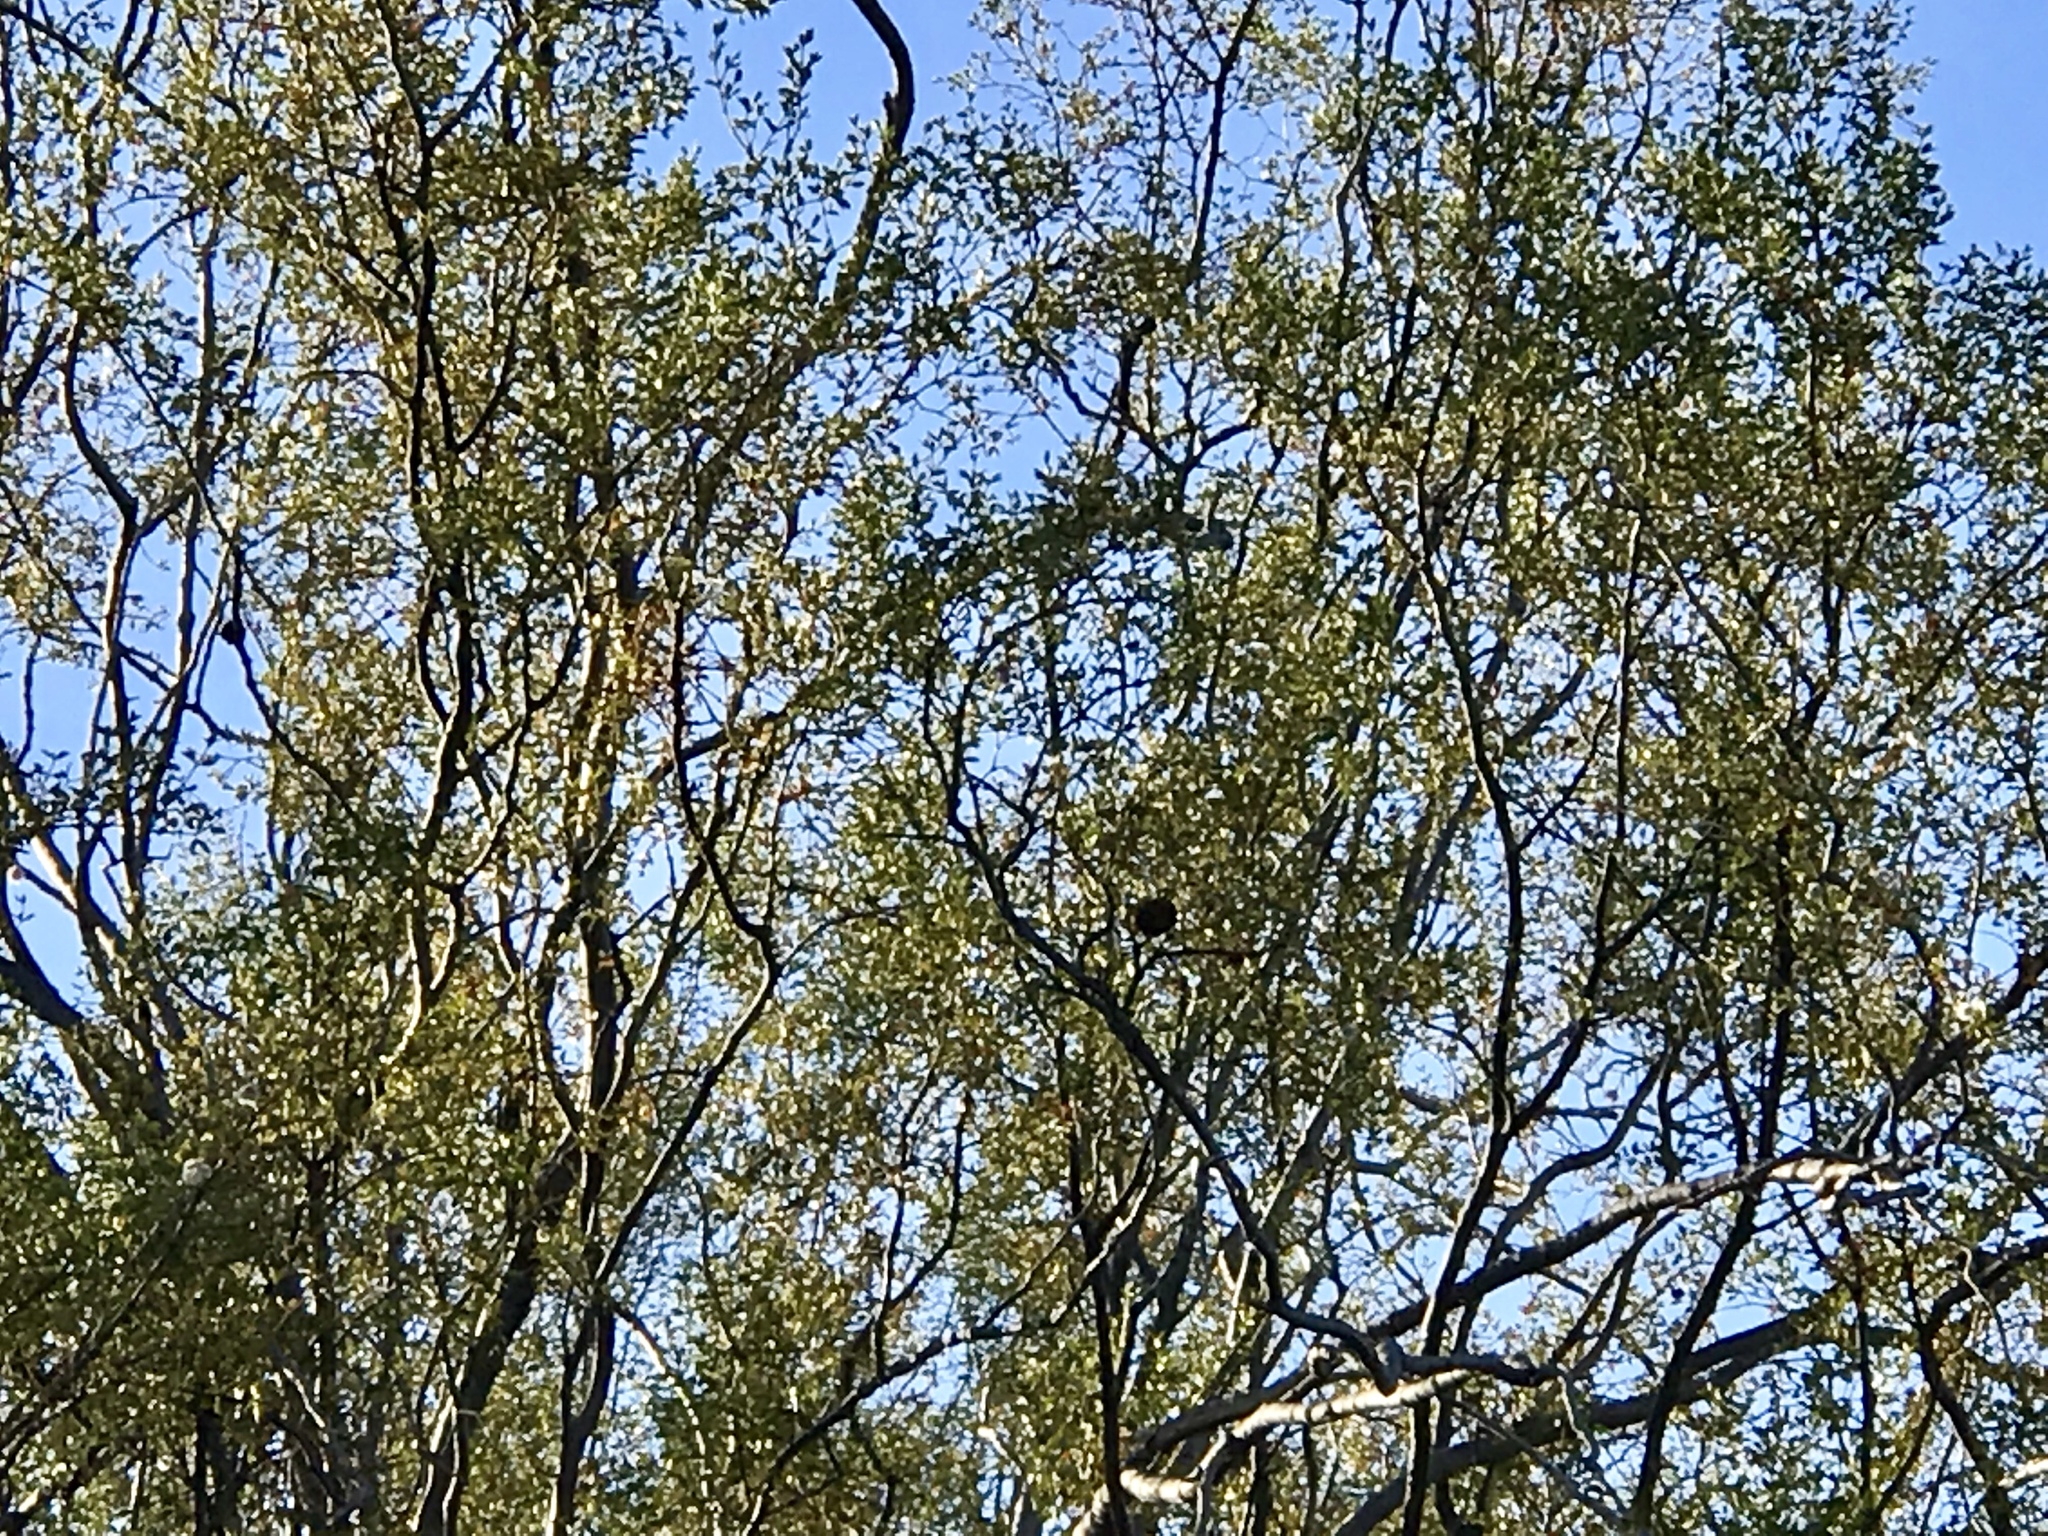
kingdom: Animalia
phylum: Arthropoda
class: Insecta
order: Diptera
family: Cecidomyiidae
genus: Asphondylia
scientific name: Asphondylia auripila
